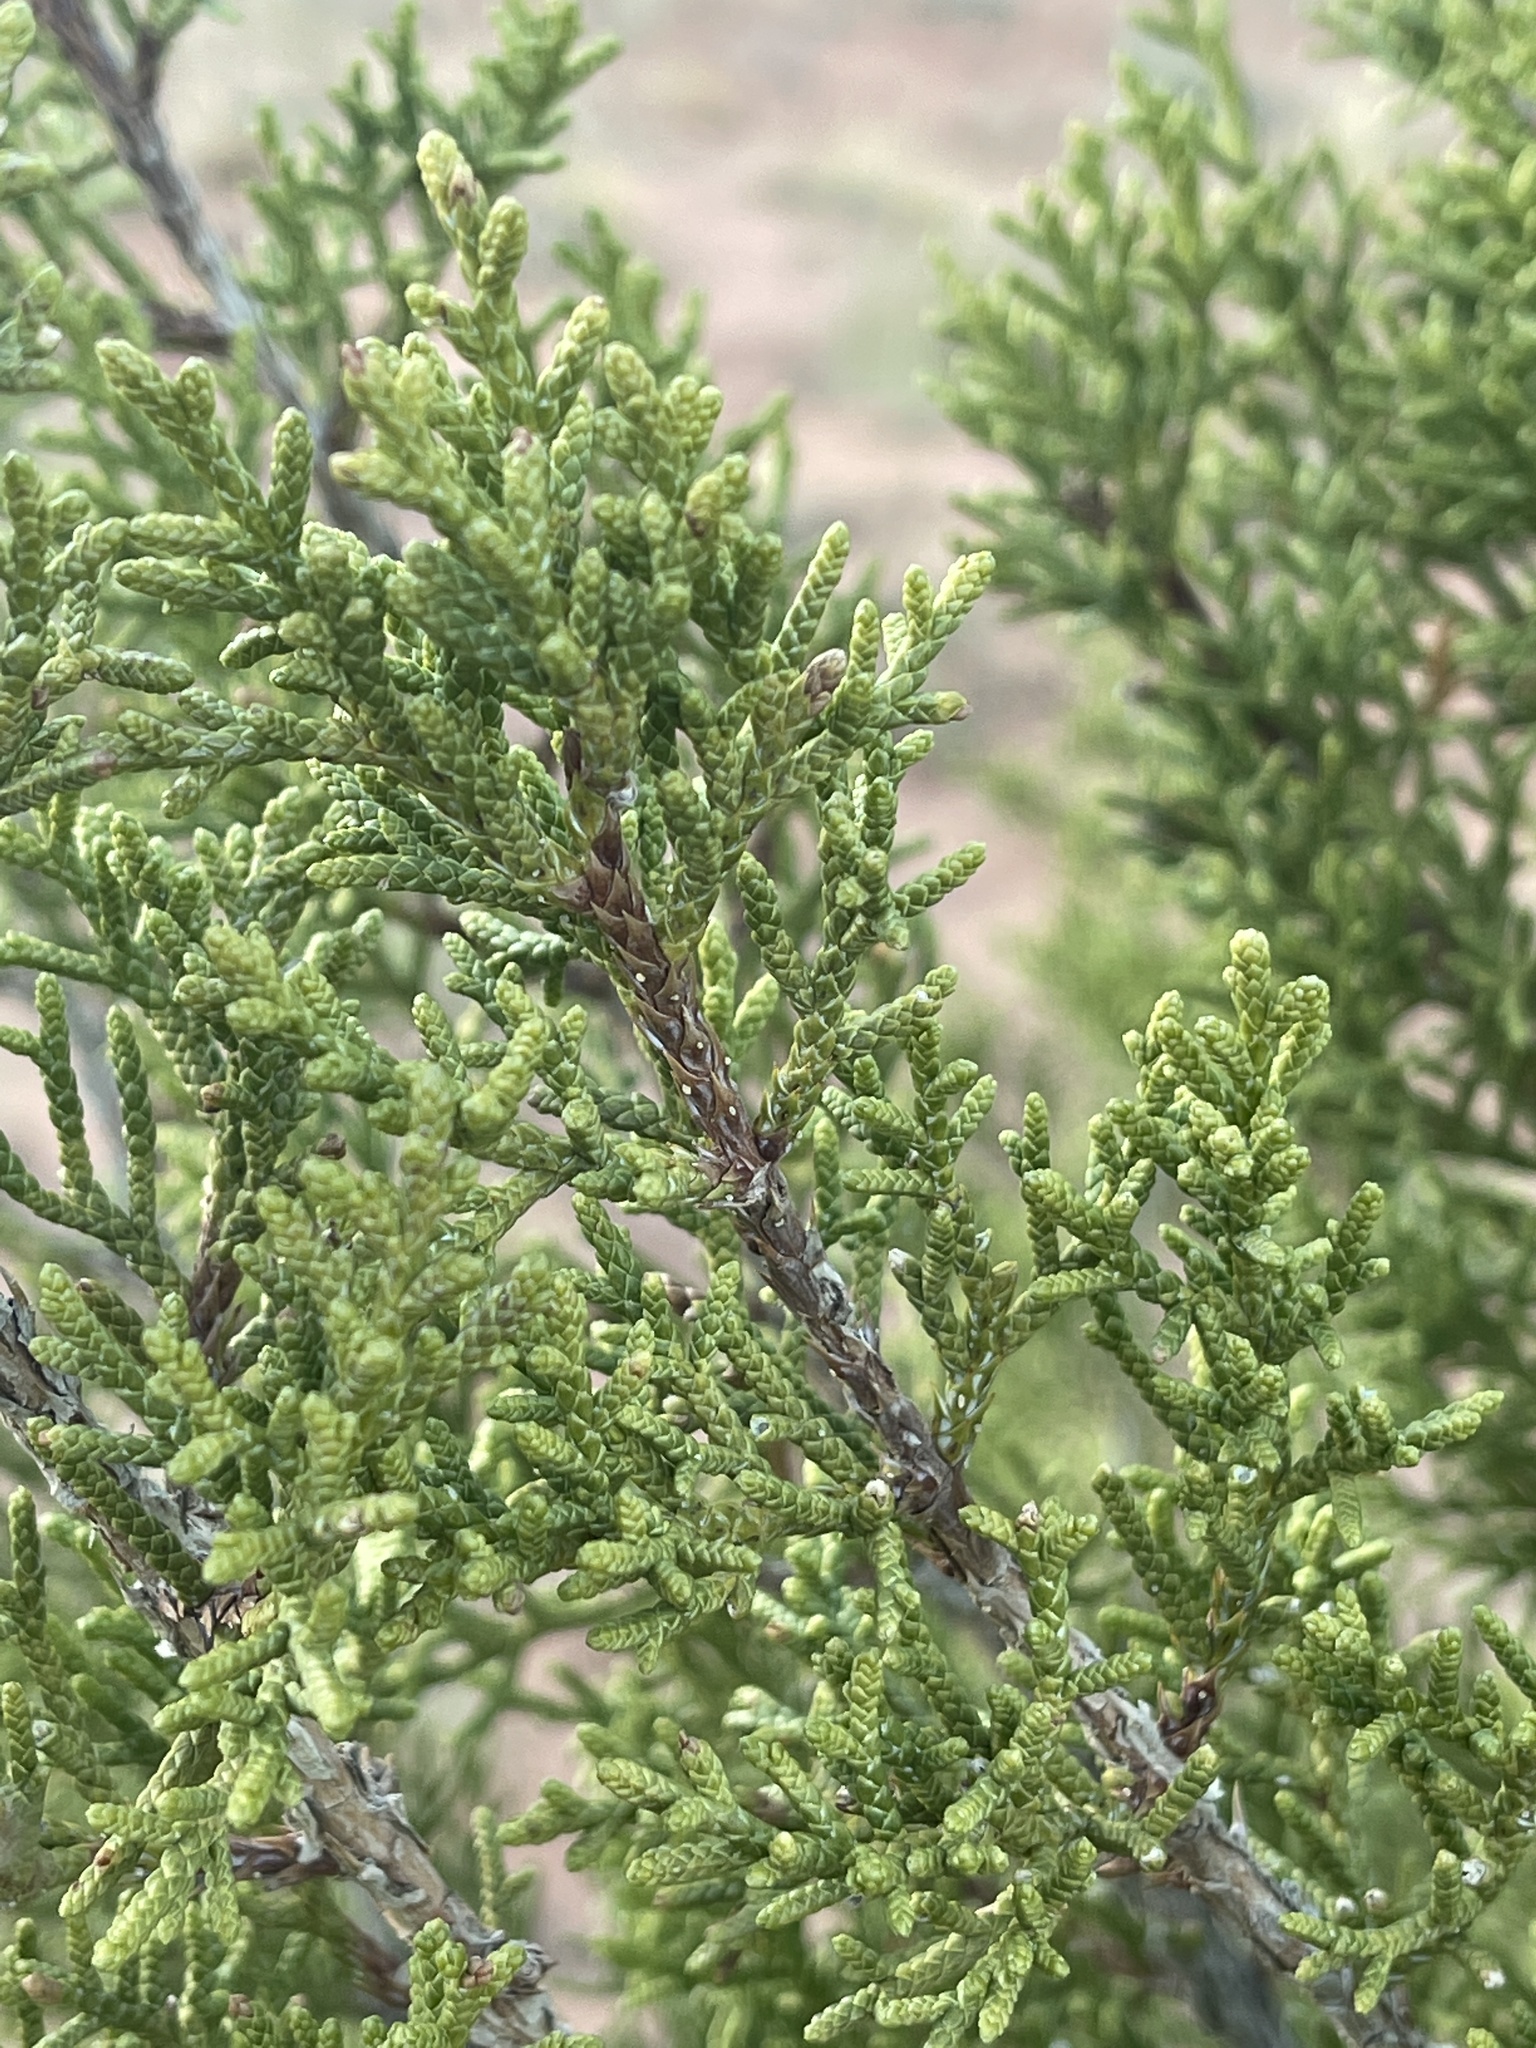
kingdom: Plantae
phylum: Tracheophyta
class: Pinopsida
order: Pinales
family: Cupressaceae
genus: Juniperus
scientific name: Juniperus osteosperma
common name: Utah juniper
